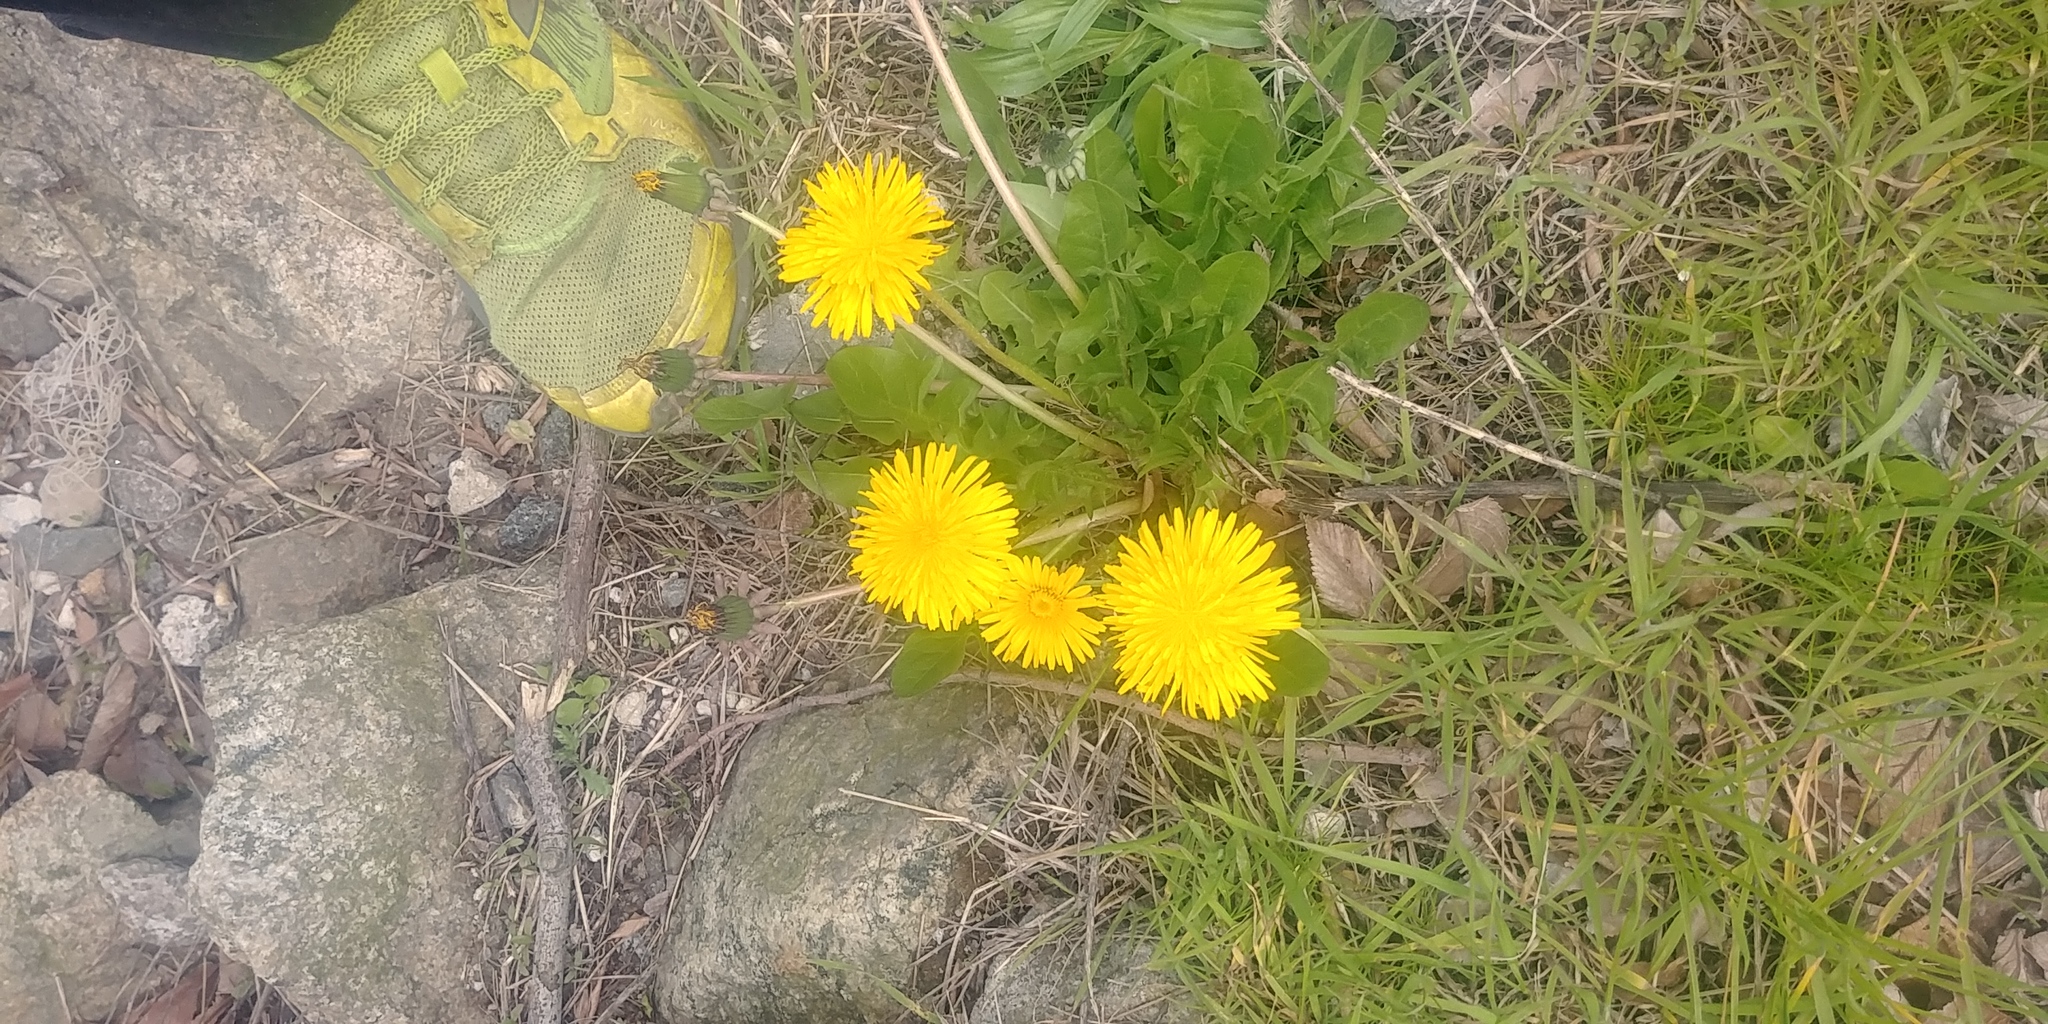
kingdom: Plantae
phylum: Tracheophyta
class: Magnoliopsida
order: Asterales
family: Asteraceae
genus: Taraxacum
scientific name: Taraxacum officinale
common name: Common dandelion
